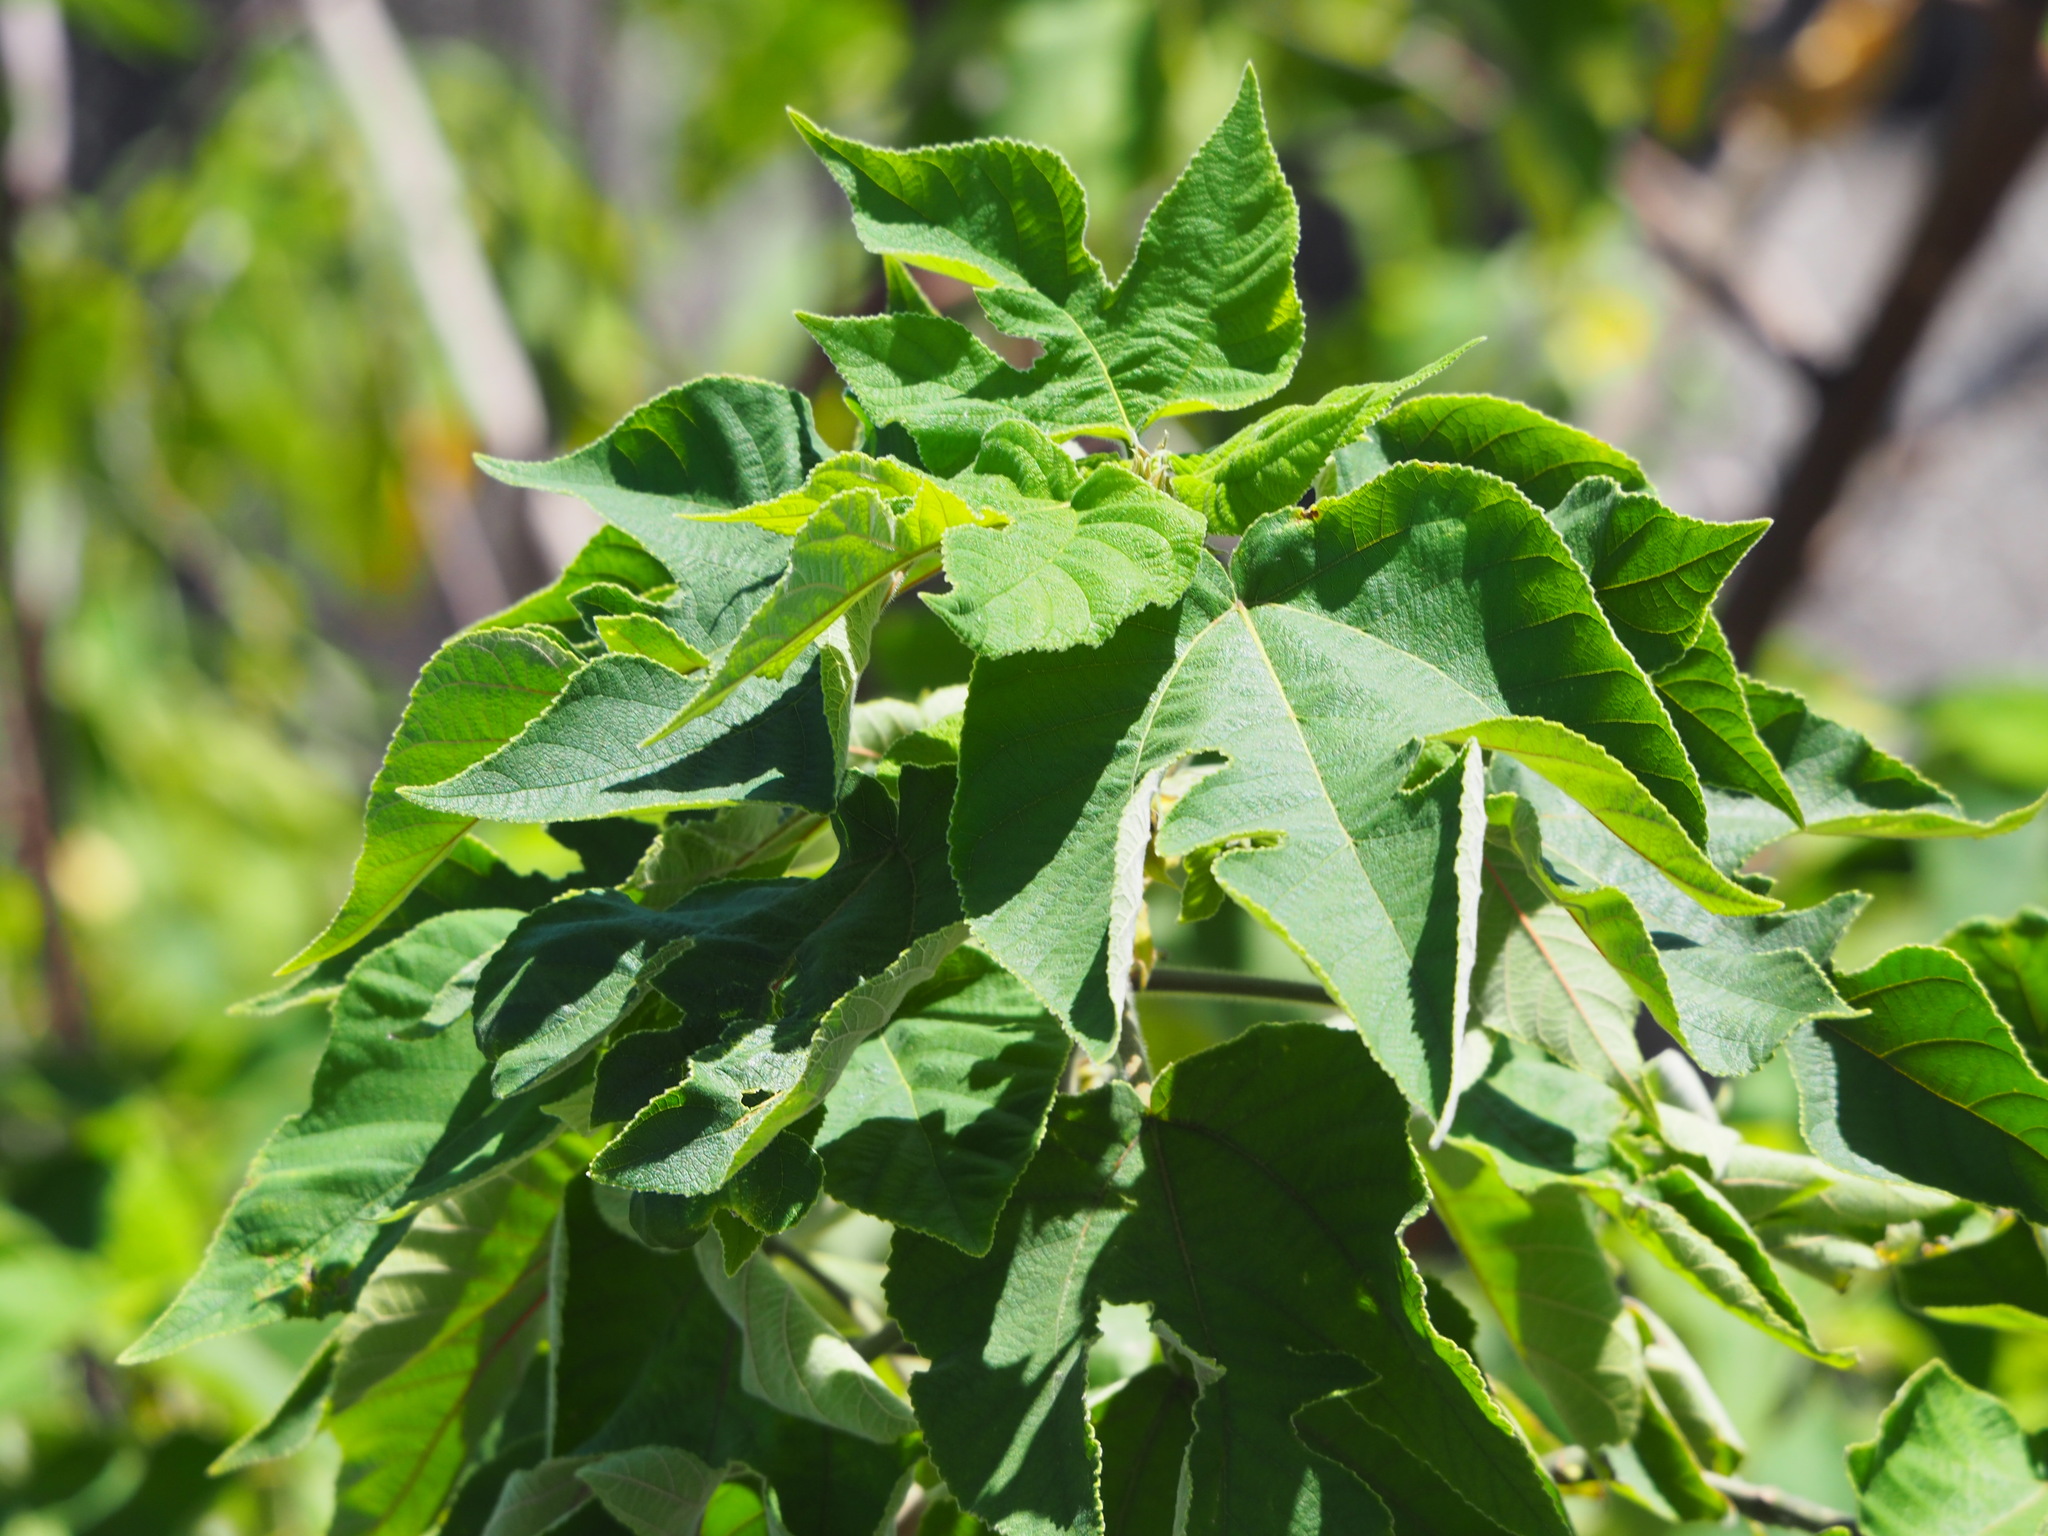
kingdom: Plantae
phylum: Tracheophyta
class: Magnoliopsida
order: Rosales
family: Moraceae
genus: Broussonetia
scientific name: Broussonetia papyrifera
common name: Paper mulberry
